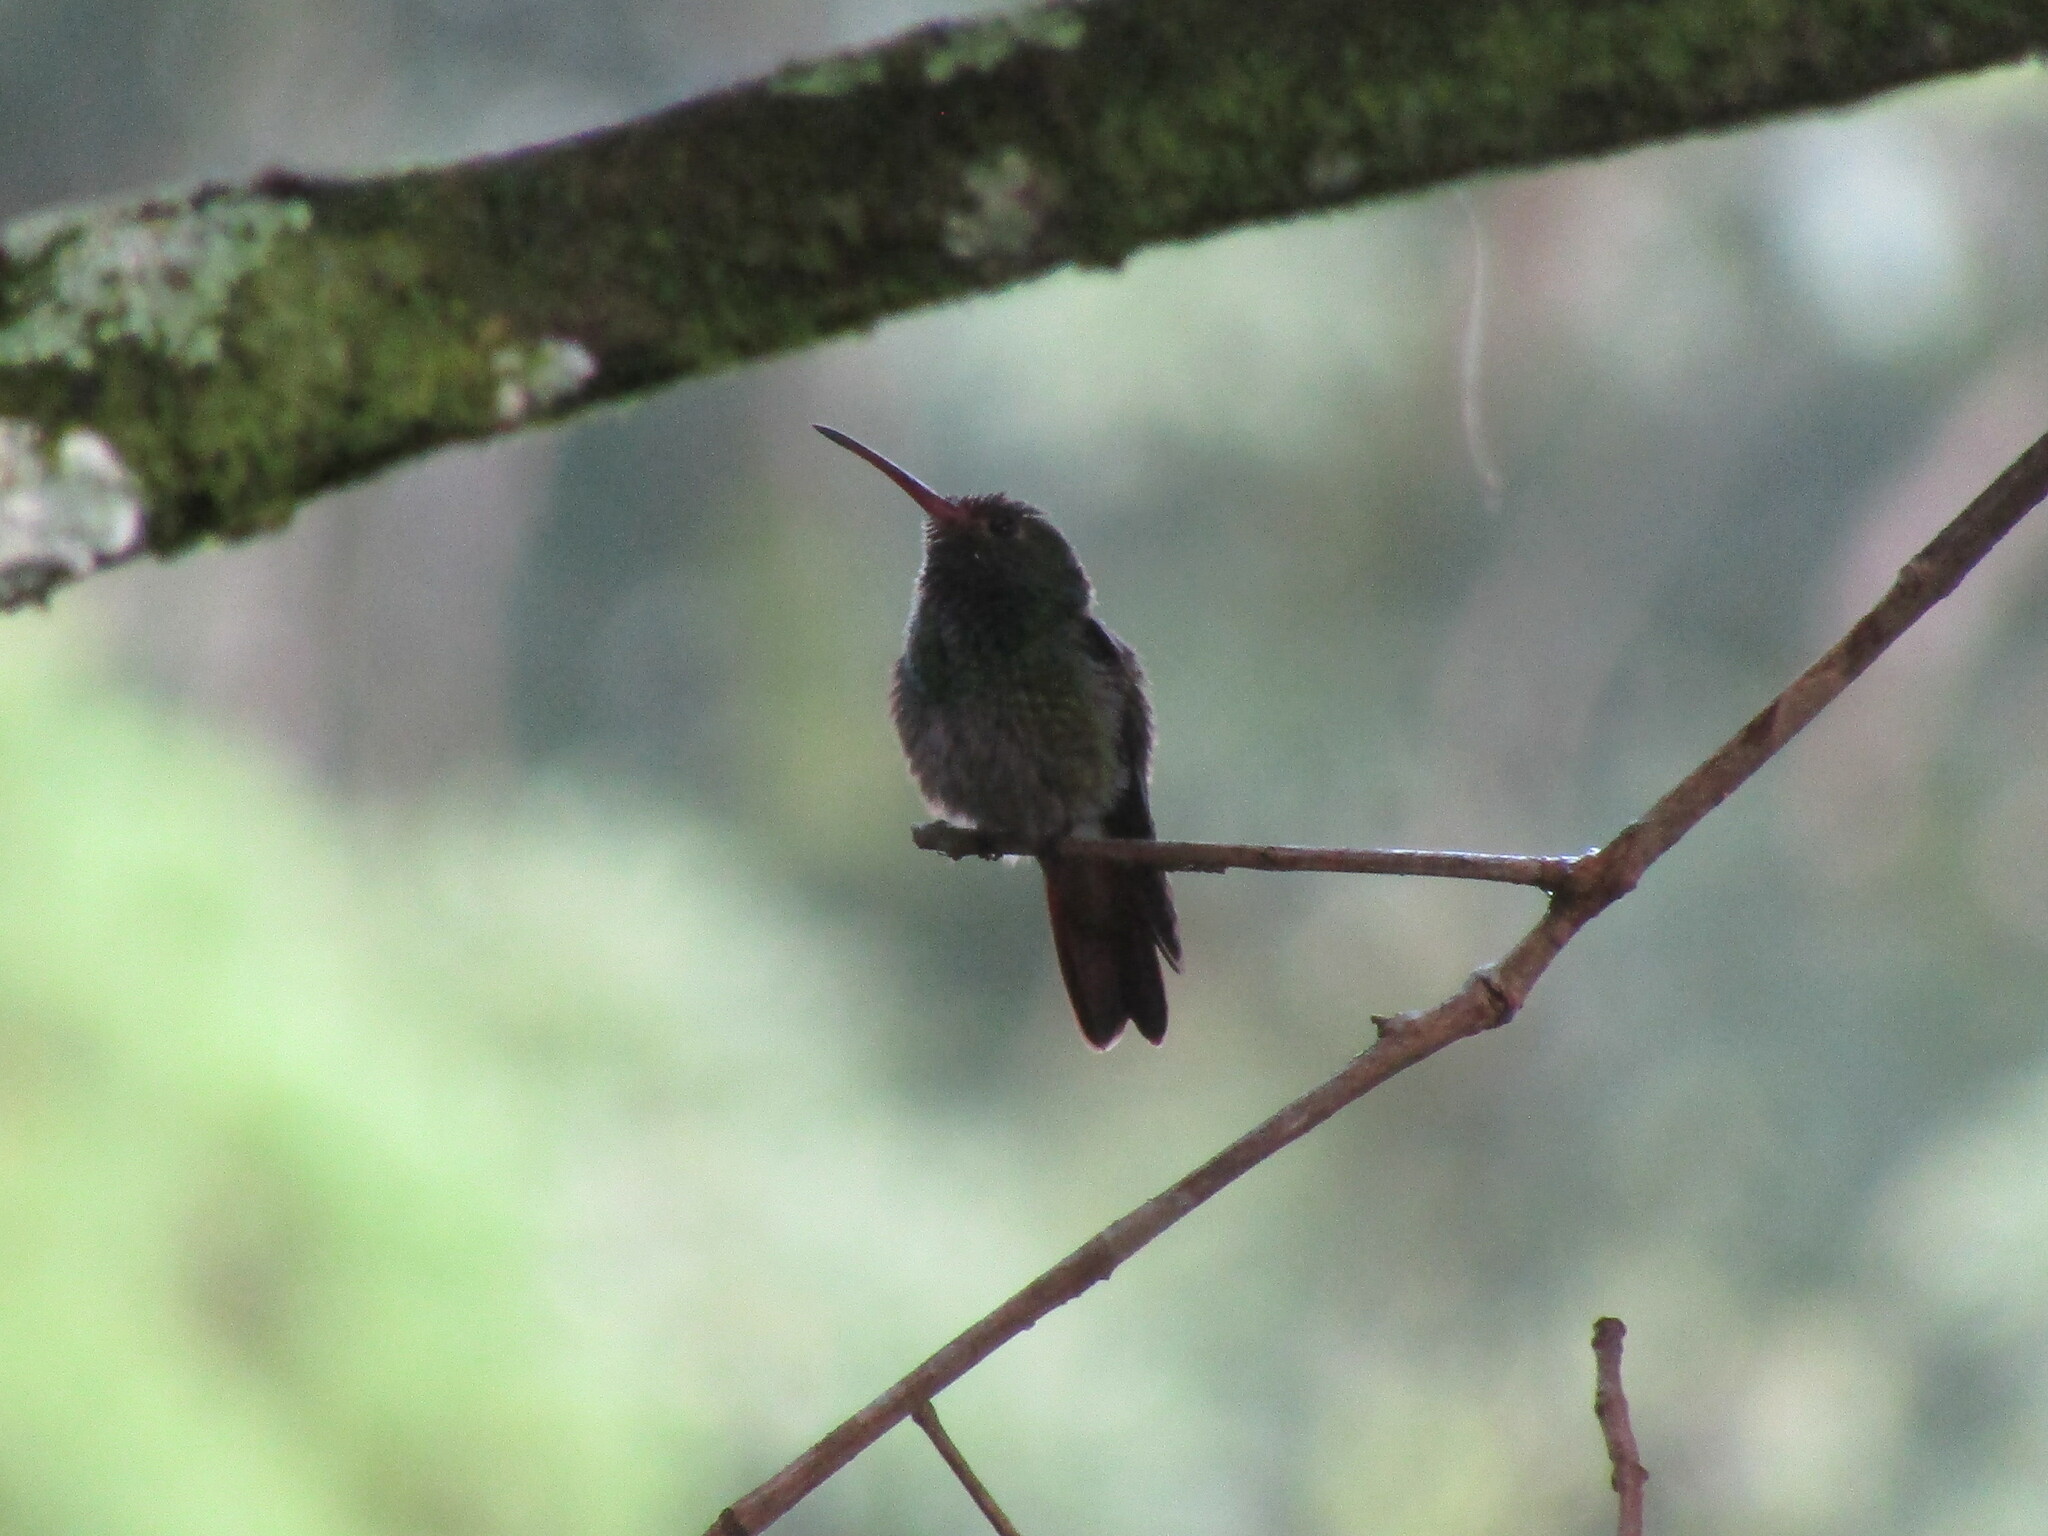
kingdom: Animalia
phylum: Chordata
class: Aves
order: Apodiformes
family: Trochilidae
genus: Amazilia
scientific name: Amazilia tzacatl
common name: Rufous-tailed hummingbird
